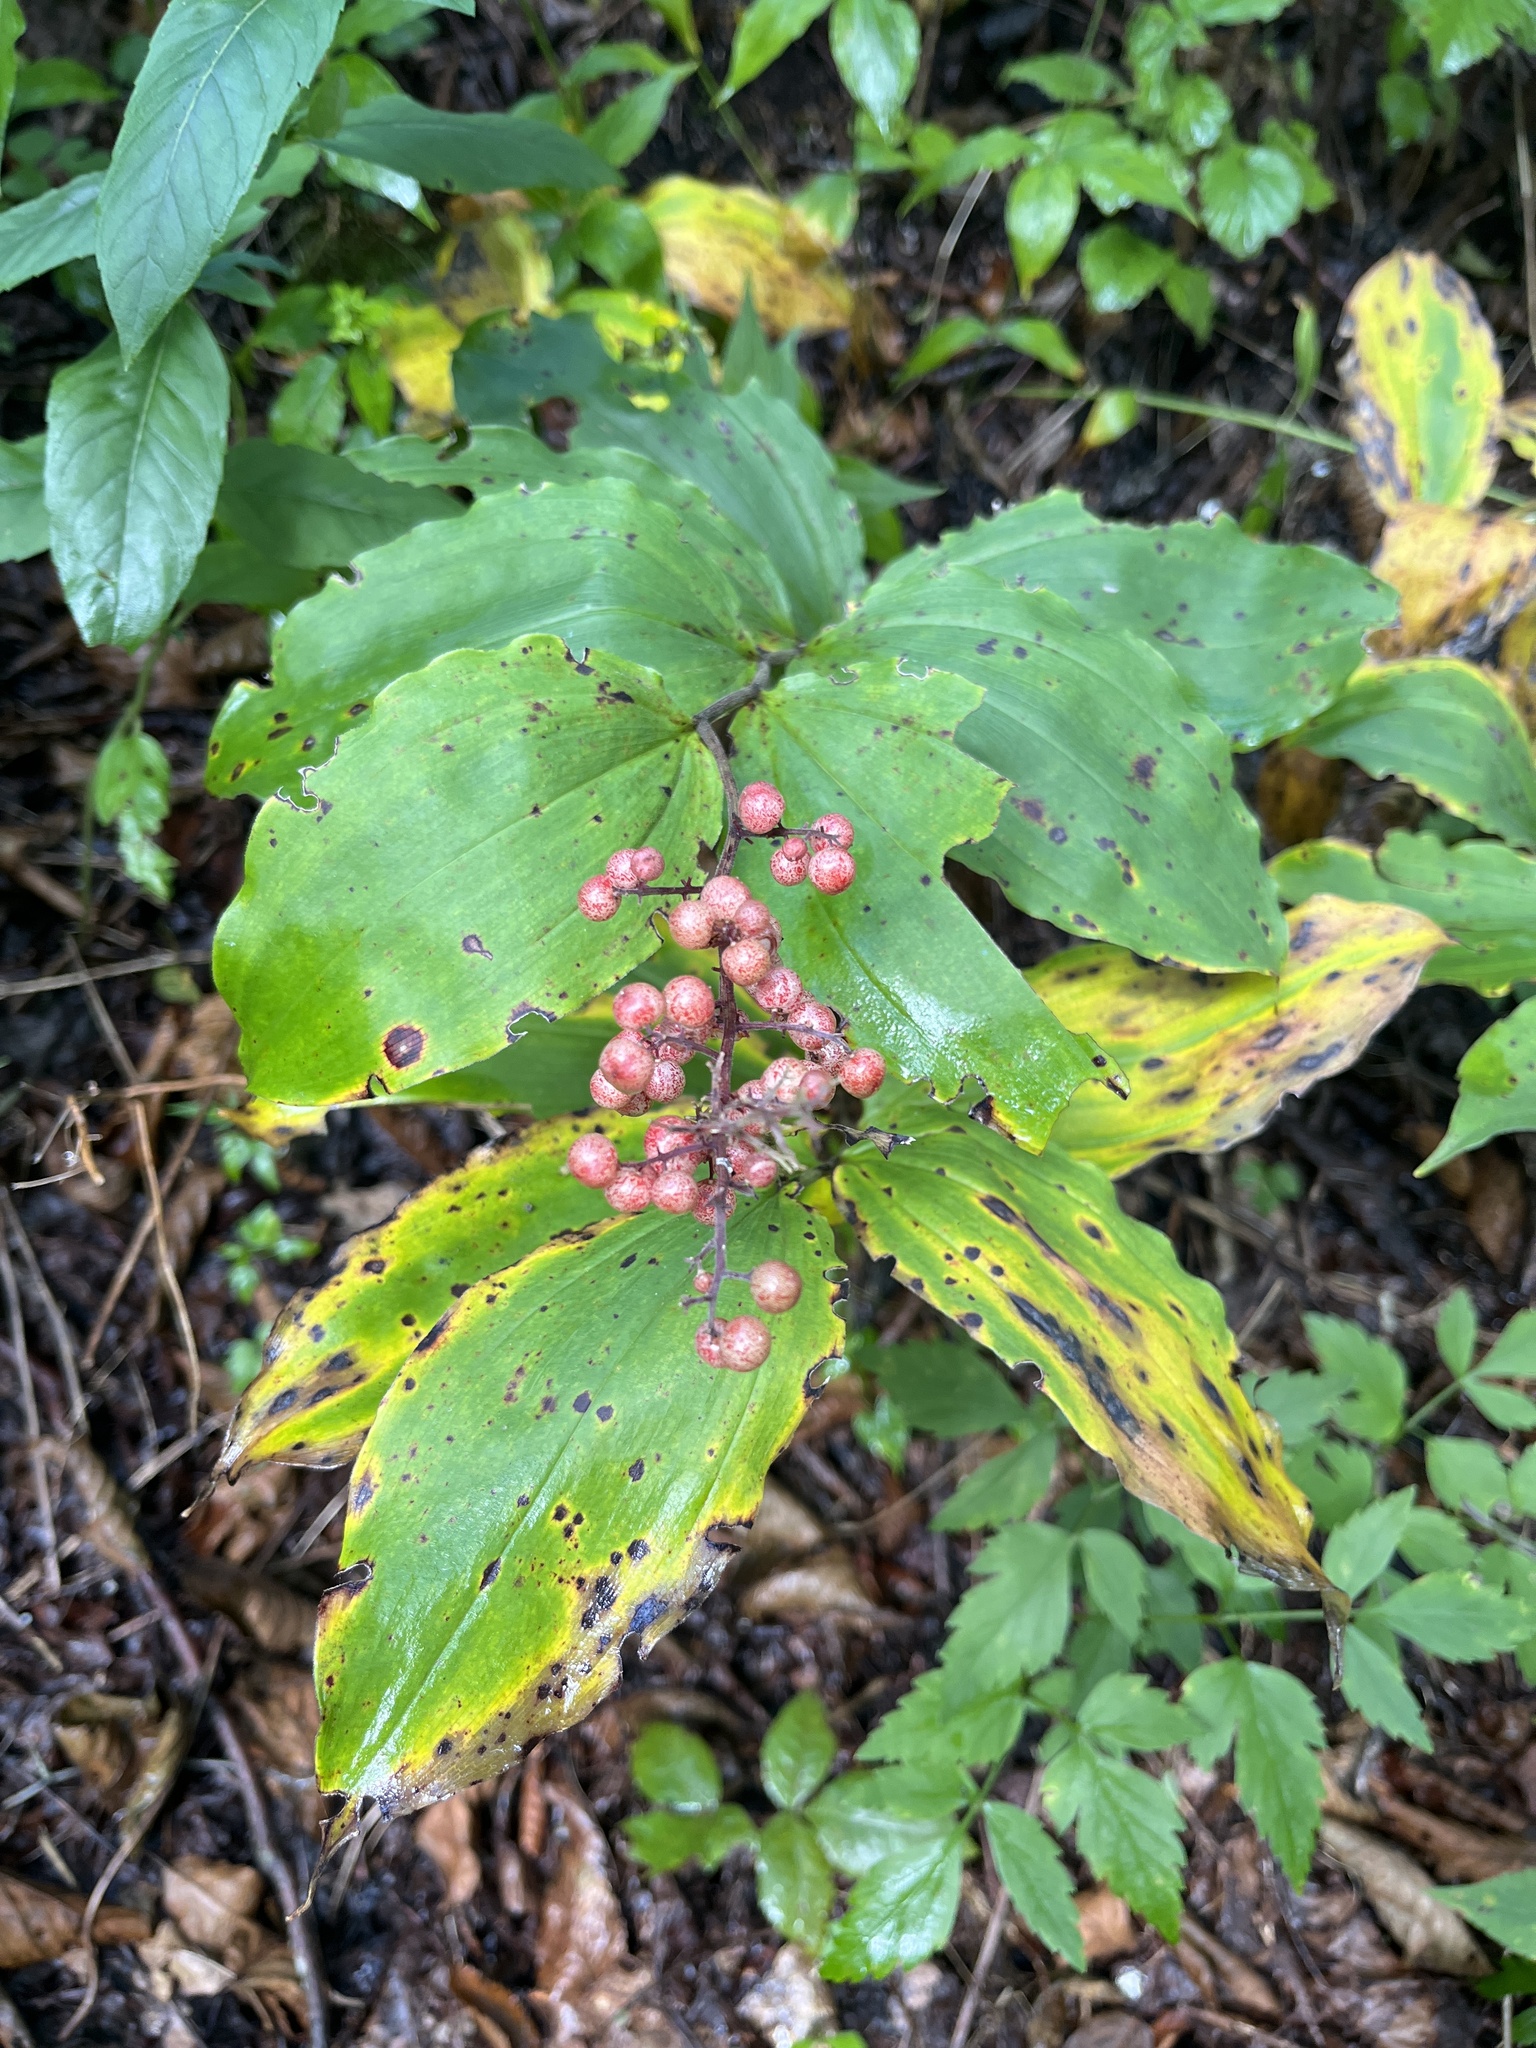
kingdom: Plantae
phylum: Tracheophyta
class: Liliopsida
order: Asparagales
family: Asparagaceae
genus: Maianthemum
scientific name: Maianthemum racemosum
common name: False spikenard
